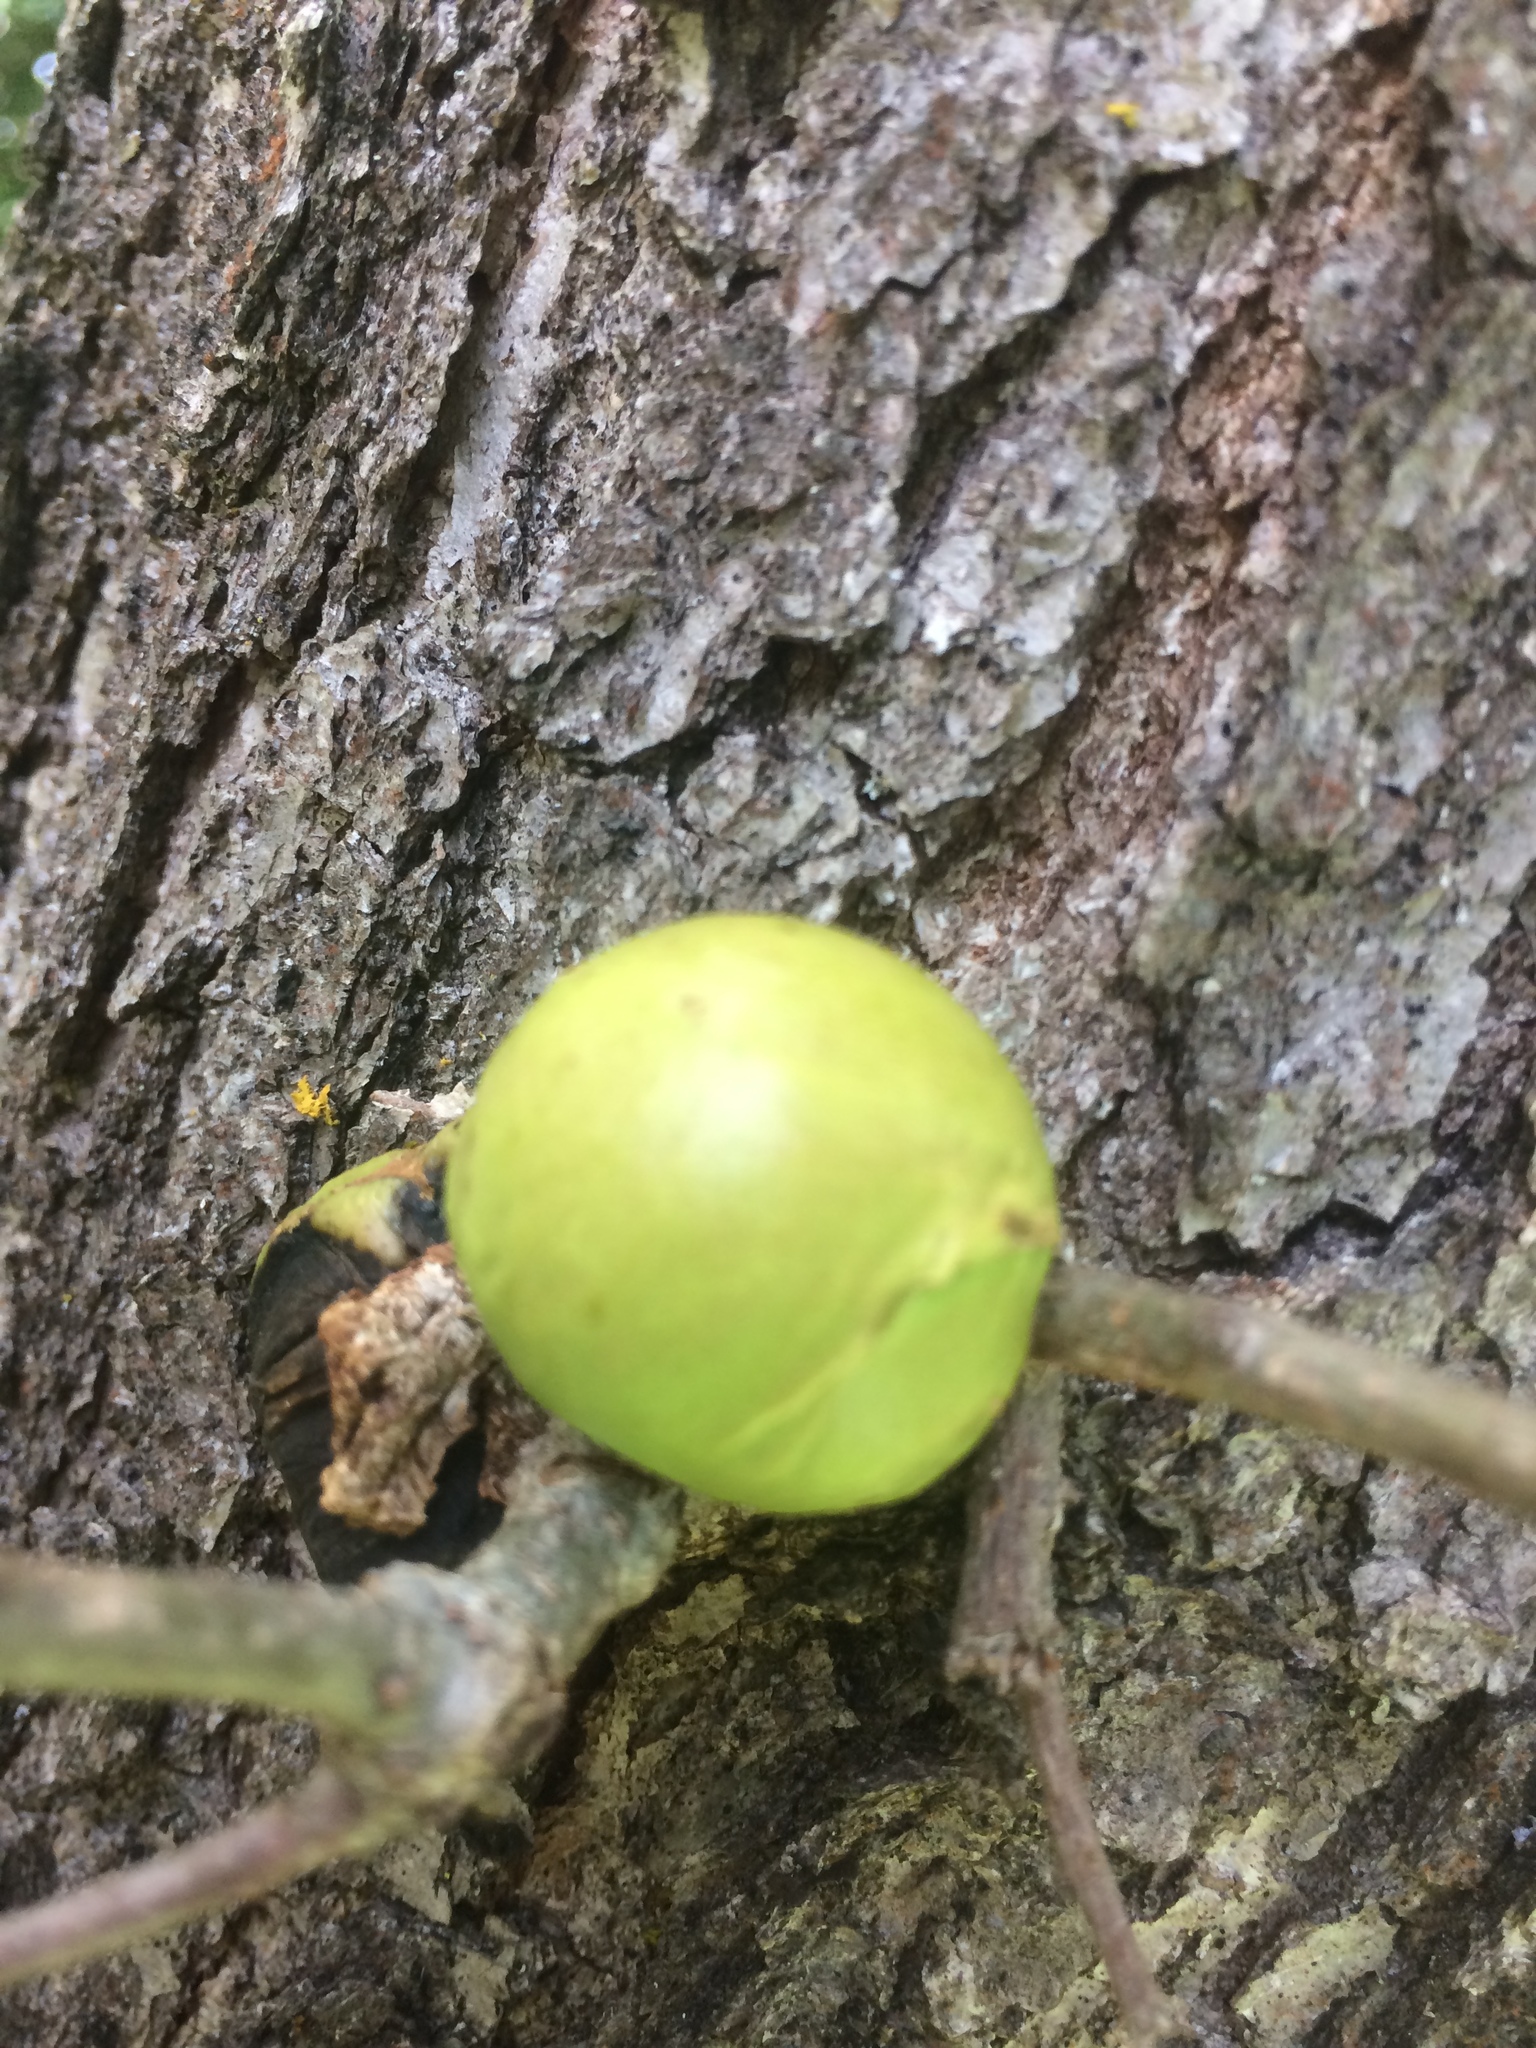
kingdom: Animalia
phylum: Arthropoda
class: Insecta
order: Hymenoptera
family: Cynipidae
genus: Andricus
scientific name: Andricus quercuscalifornicus
